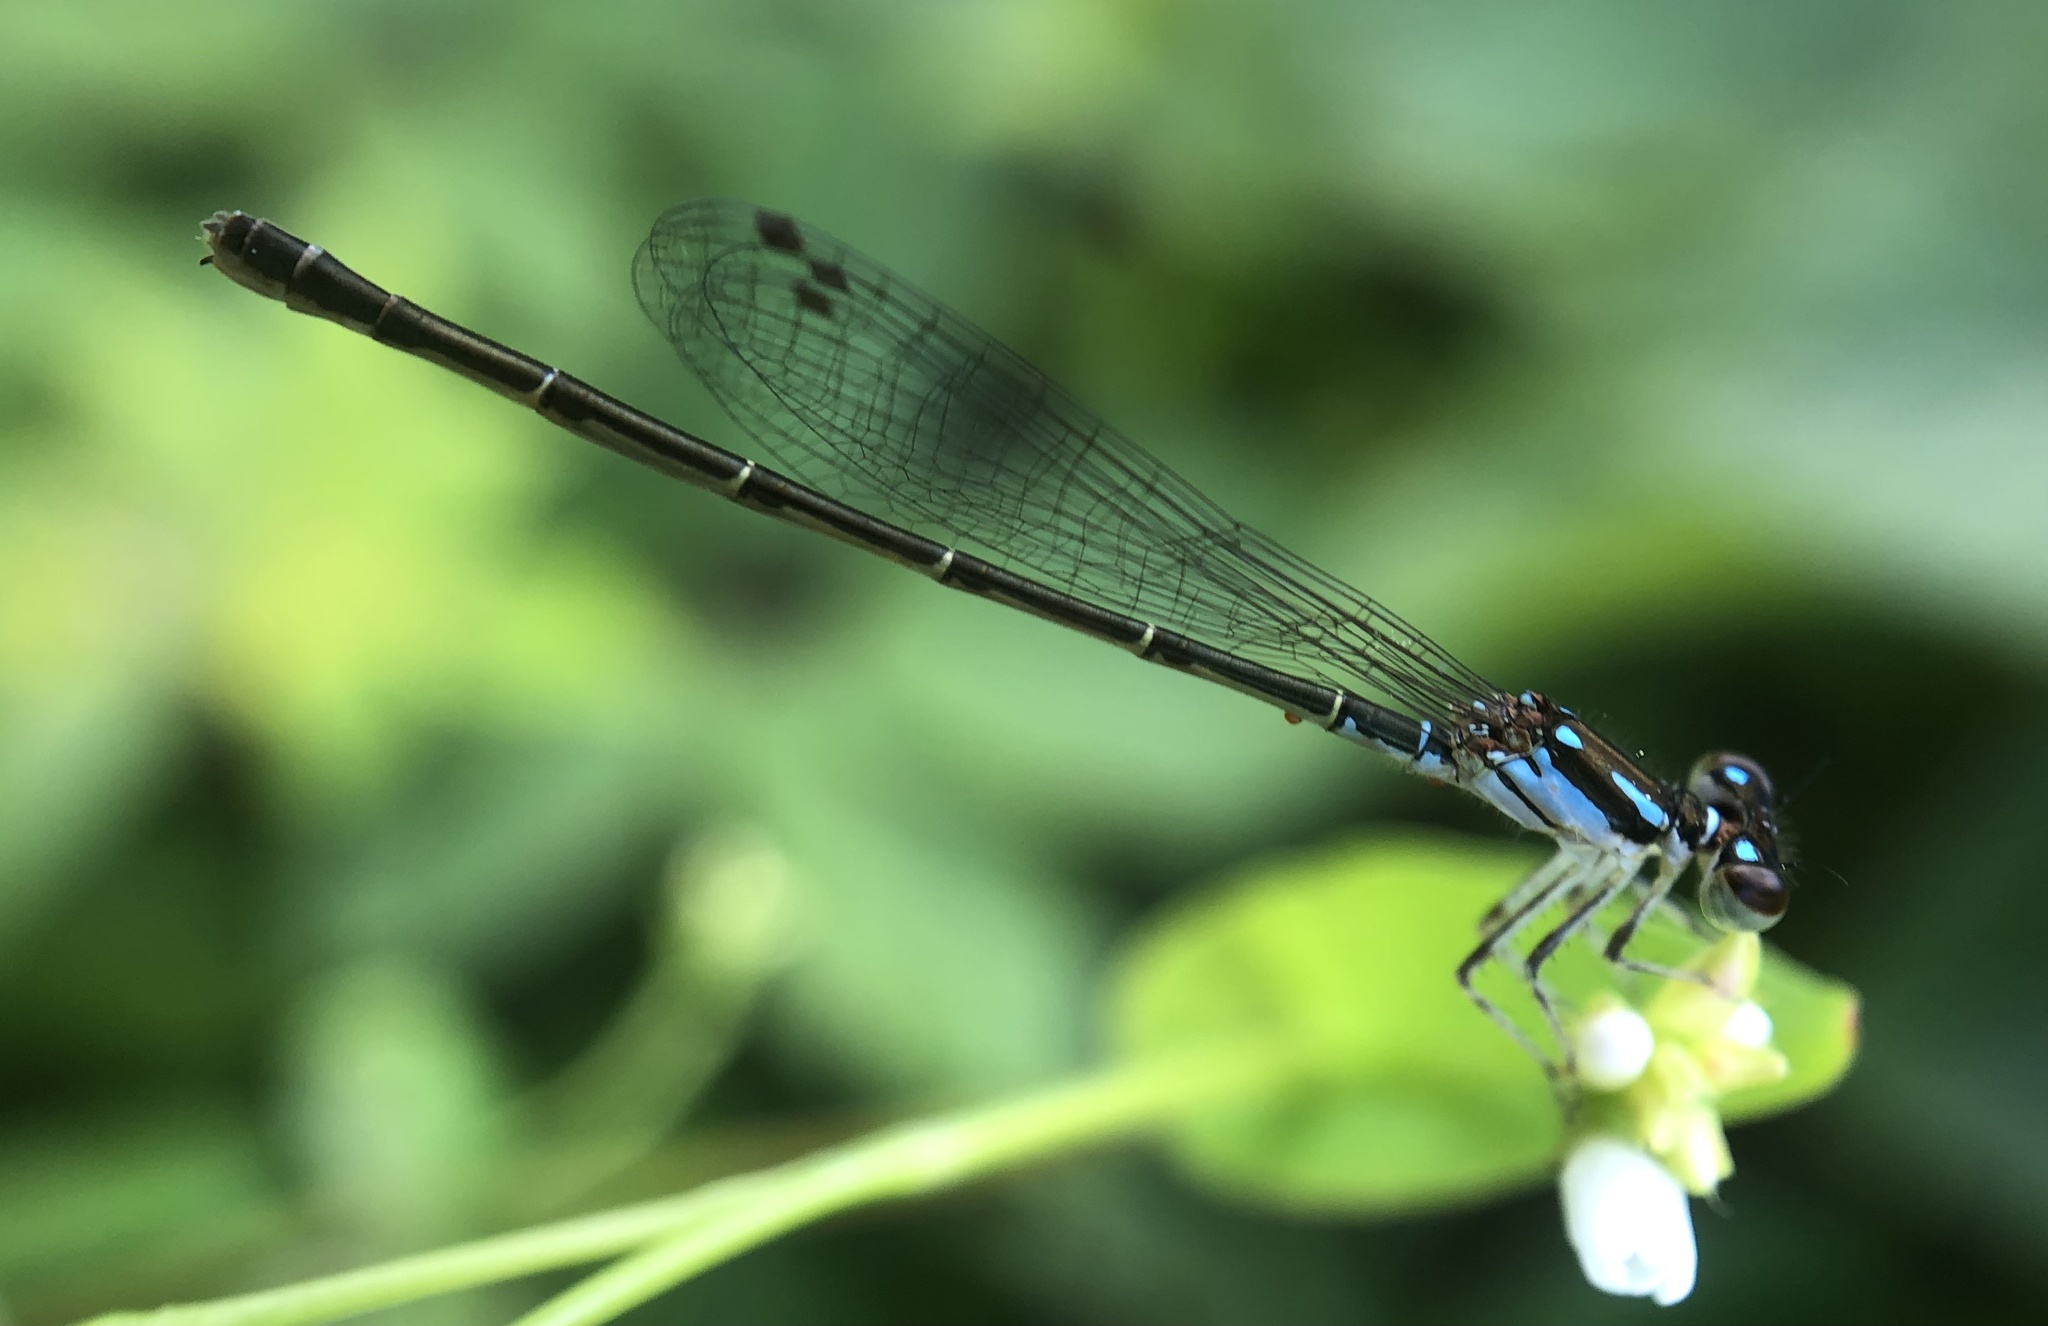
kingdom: Animalia
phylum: Arthropoda
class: Insecta
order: Odonata
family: Coenagrionidae
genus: Ischnura
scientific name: Ischnura posita
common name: Fragile forktail
